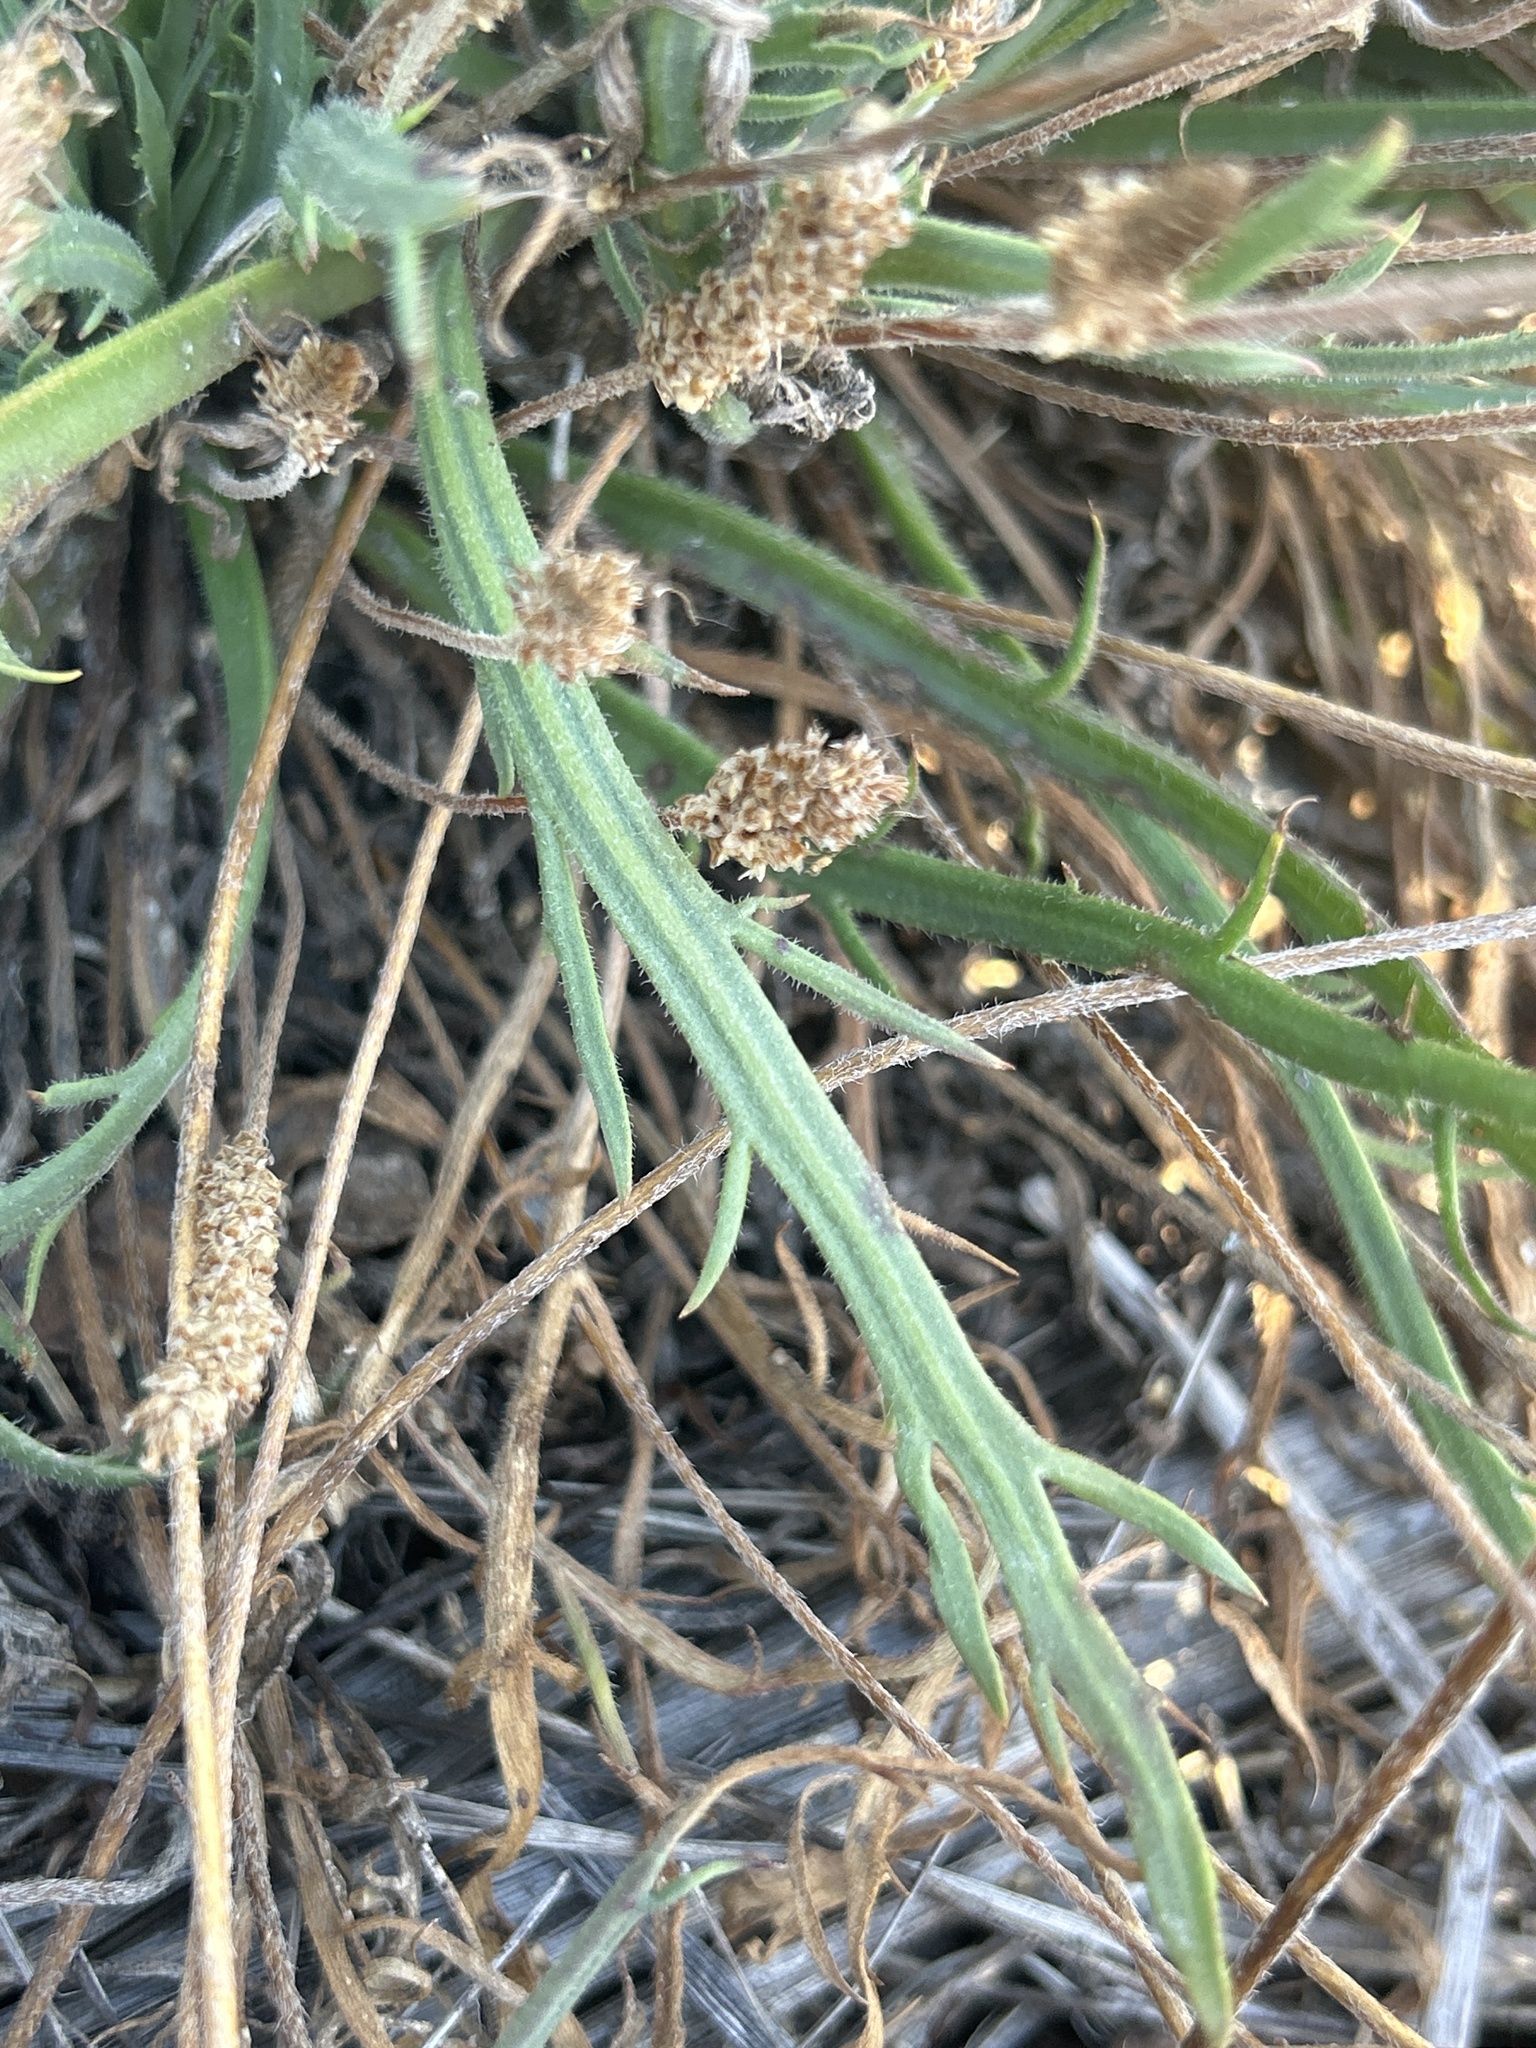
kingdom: Plantae
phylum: Tracheophyta
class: Magnoliopsida
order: Lamiales
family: Plantaginaceae
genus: Plantago
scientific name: Plantago coronopus
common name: Buck's-horn plantain
